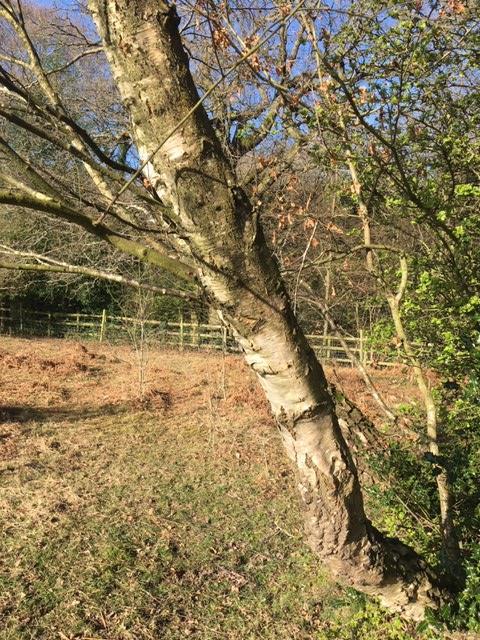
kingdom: Plantae
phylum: Tracheophyta
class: Magnoliopsida
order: Fagales
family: Betulaceae
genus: Betula
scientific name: Betula pendula
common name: Silver birch
